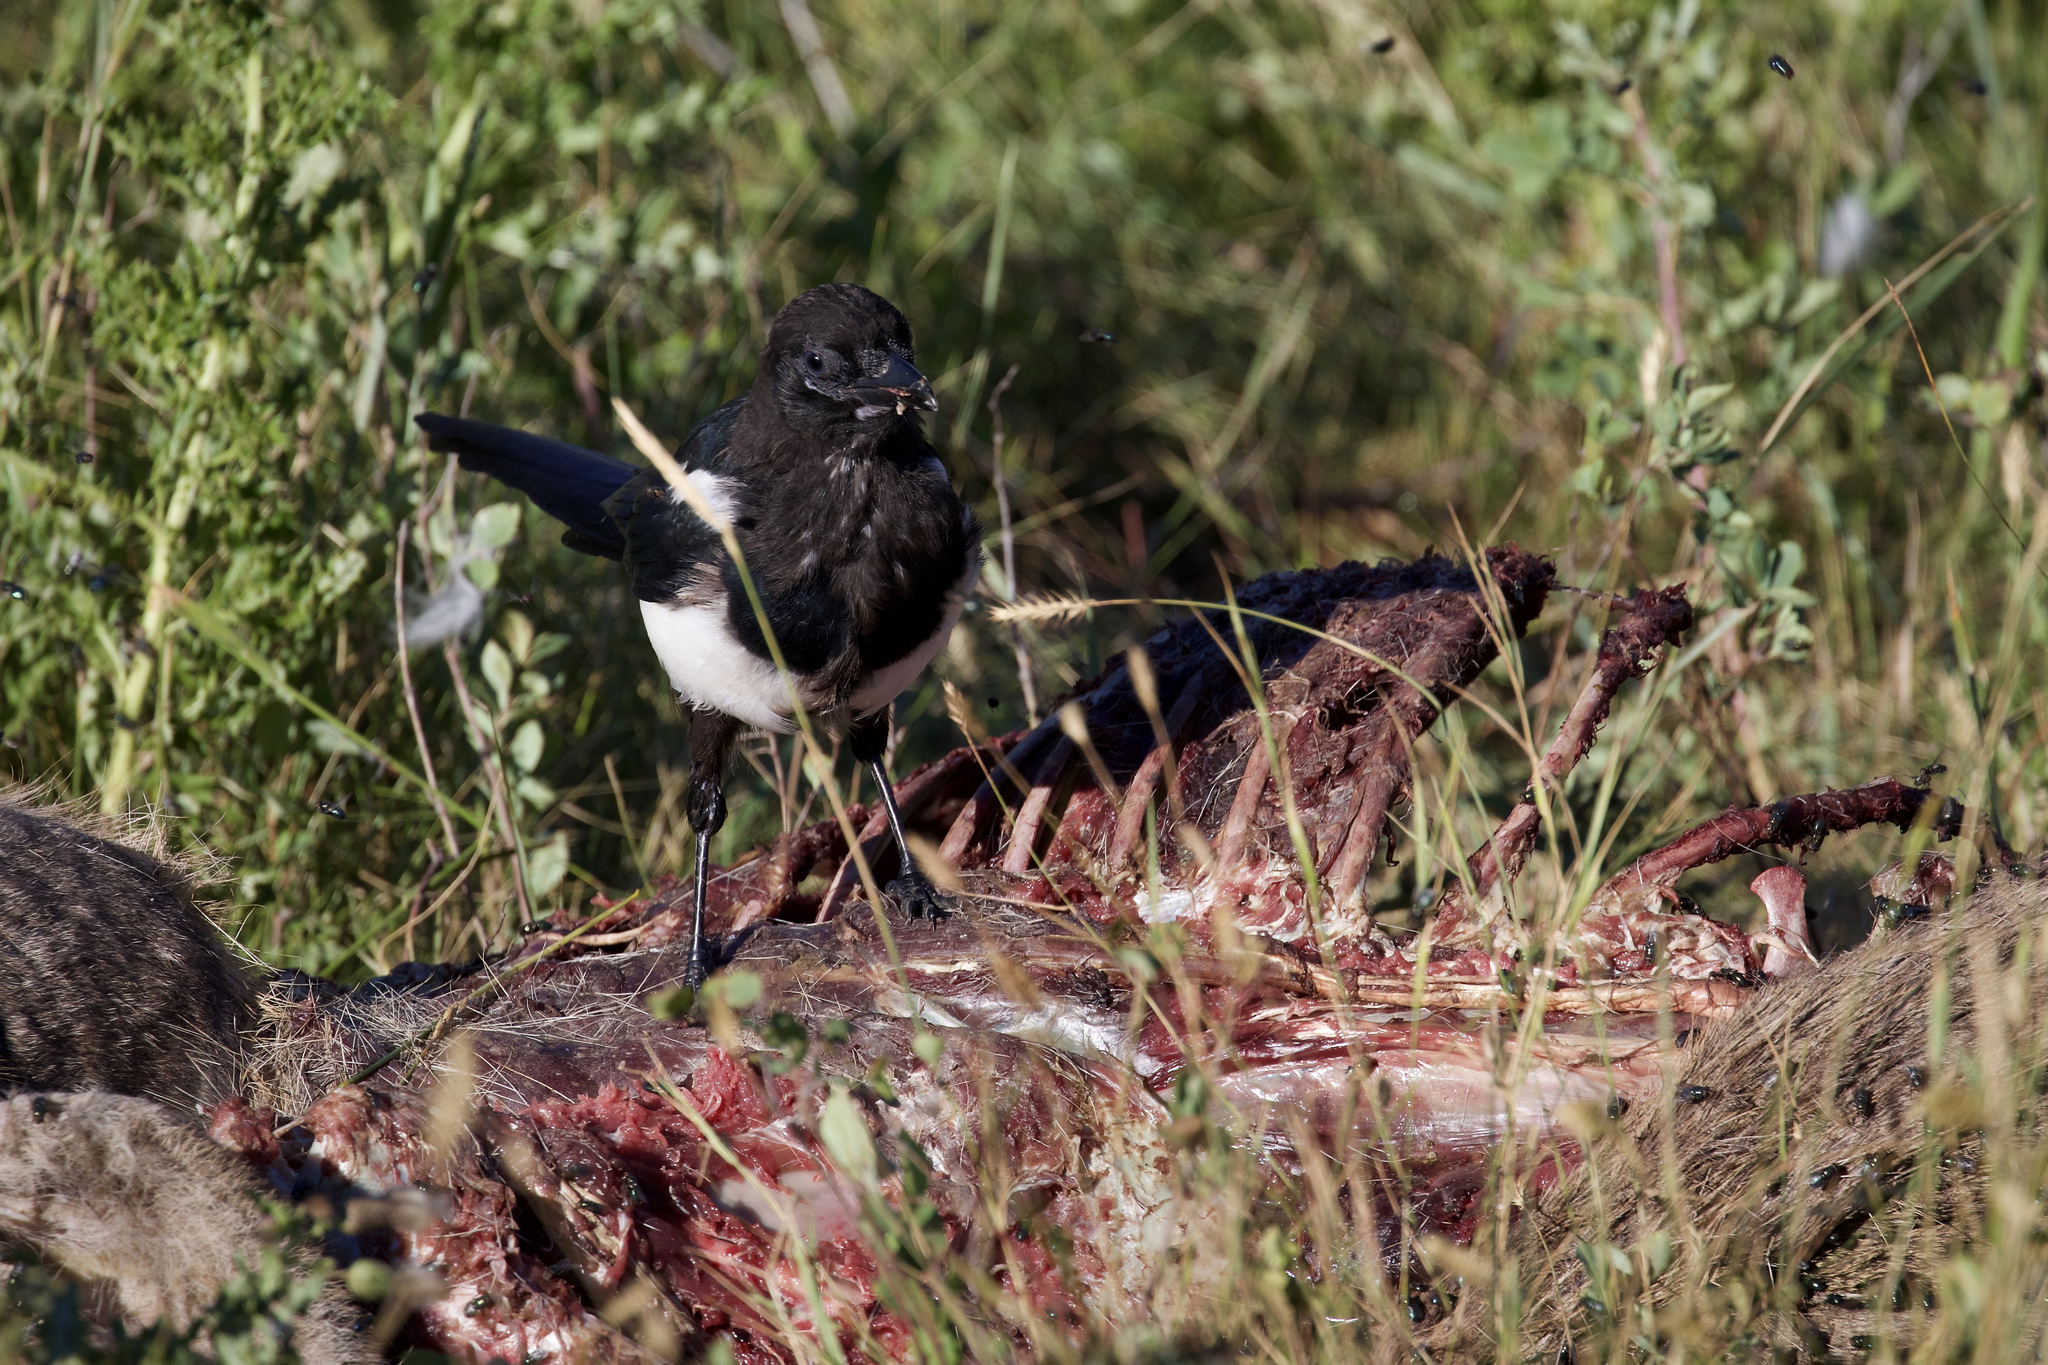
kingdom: Animalia
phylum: Chordata
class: Aves
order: Passeriformes
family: Corvidae
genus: Pica
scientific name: Pica hudsonia
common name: Black-billed magpie
